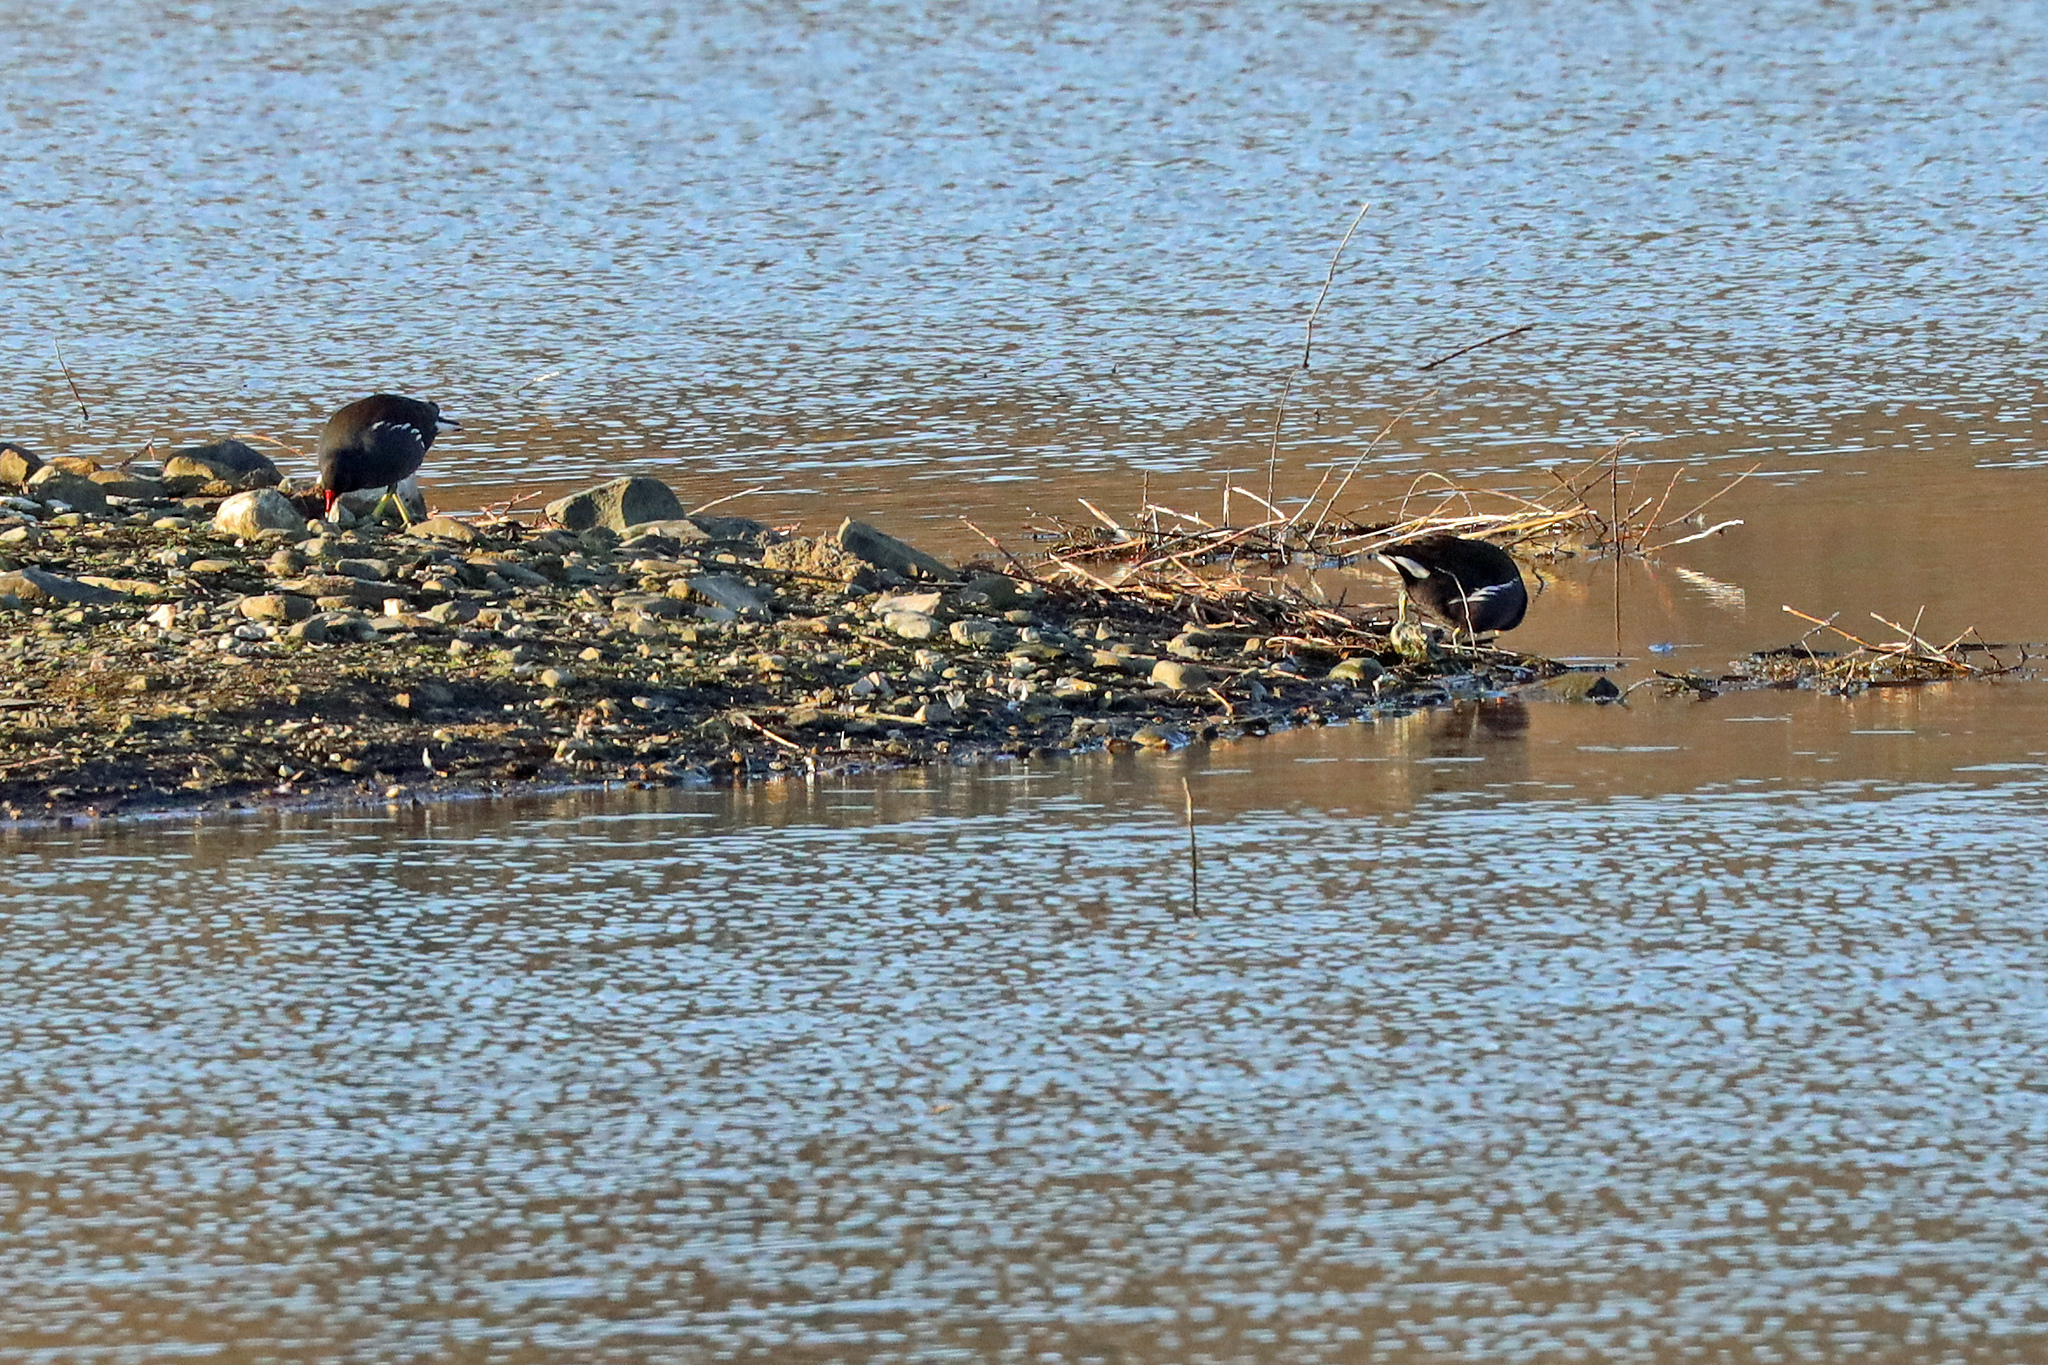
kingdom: Animalia
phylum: Chordata
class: Aves
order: Gruiformes
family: Rallidae
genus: Gallinula
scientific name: Gallinula chloropus
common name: Common moorhen
